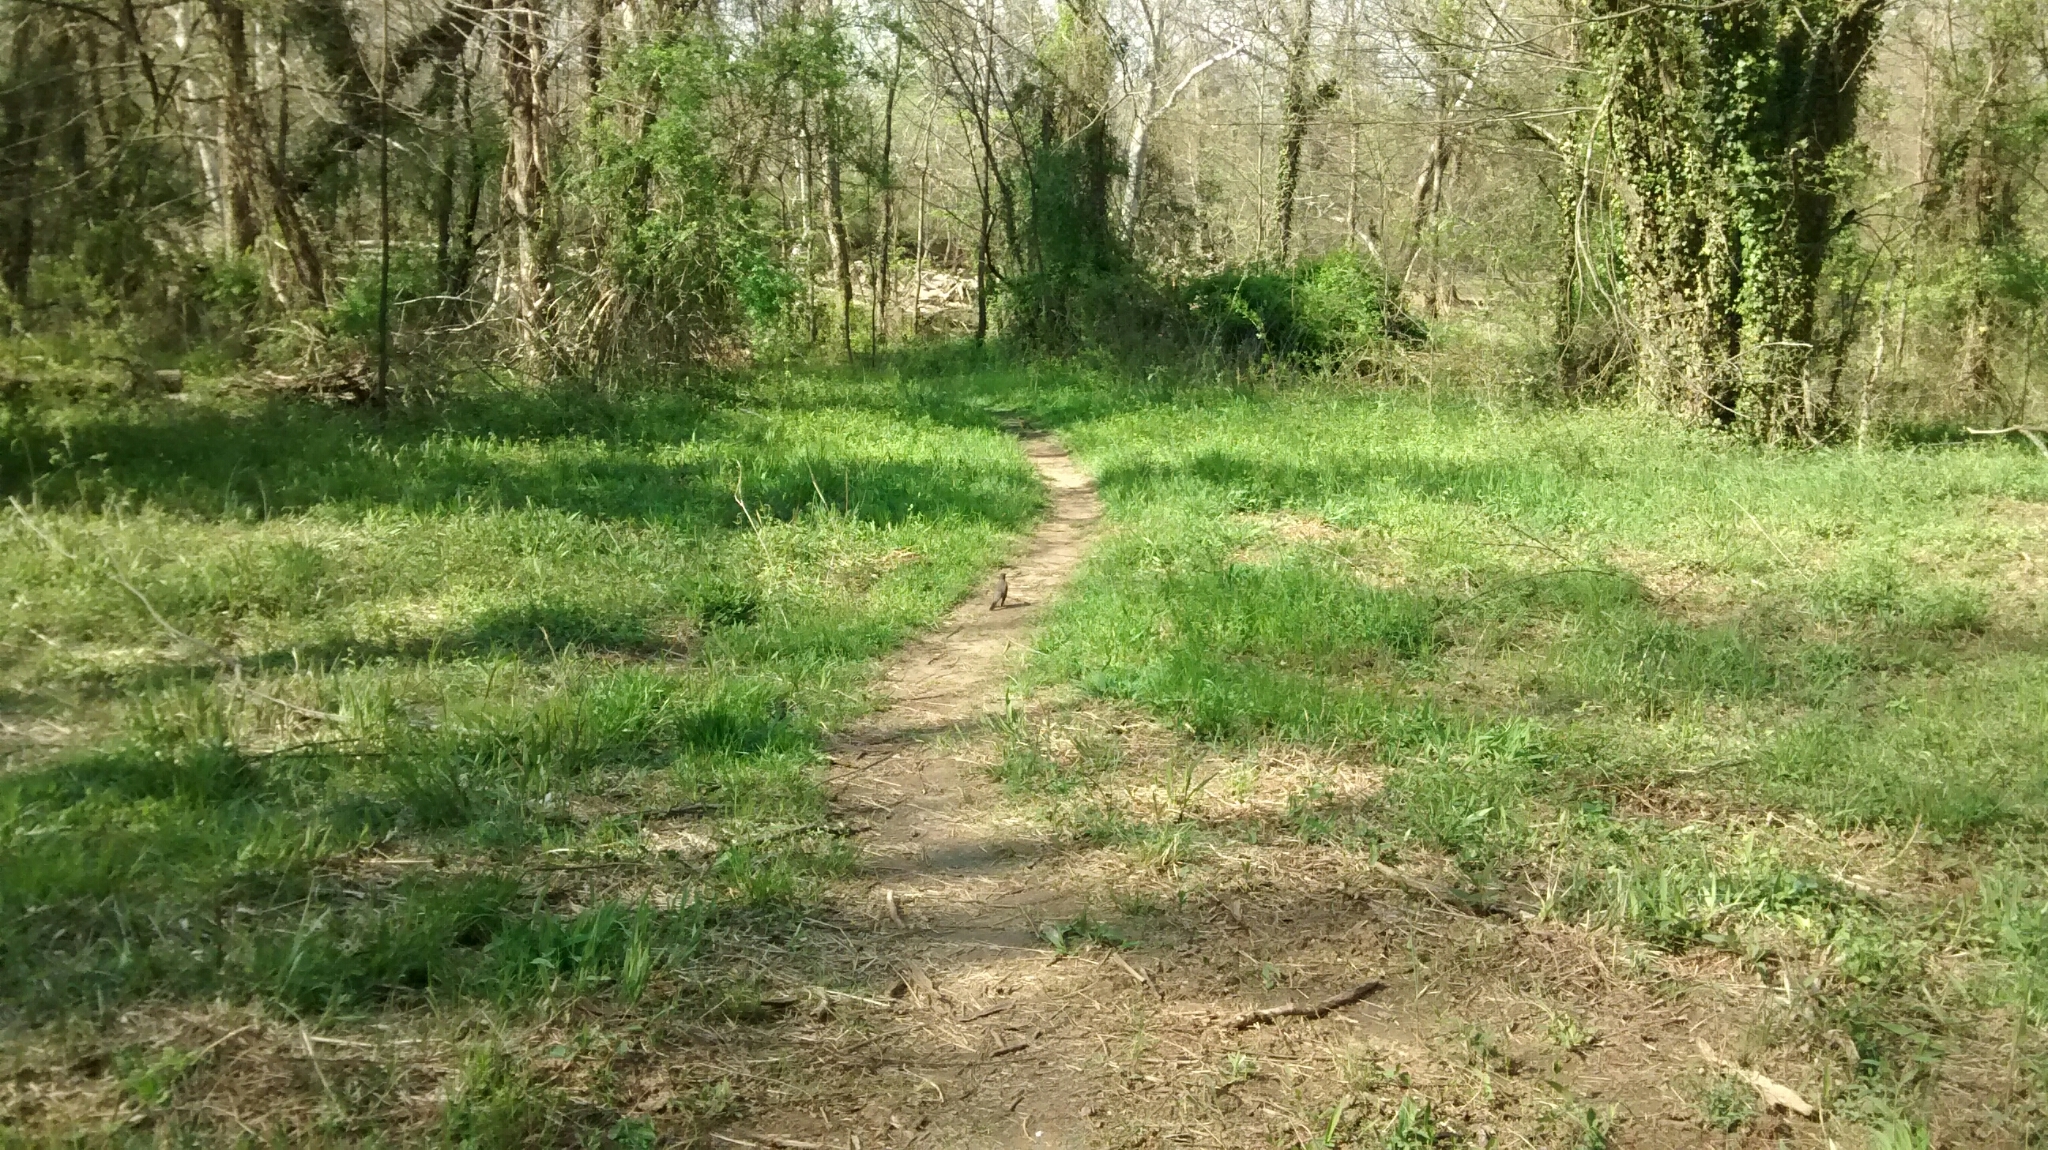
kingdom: Animalia
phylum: Chordata
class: Aves
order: Passeriformes
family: Turdidae
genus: Turdus
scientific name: Turdus migratorius
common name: American robin
